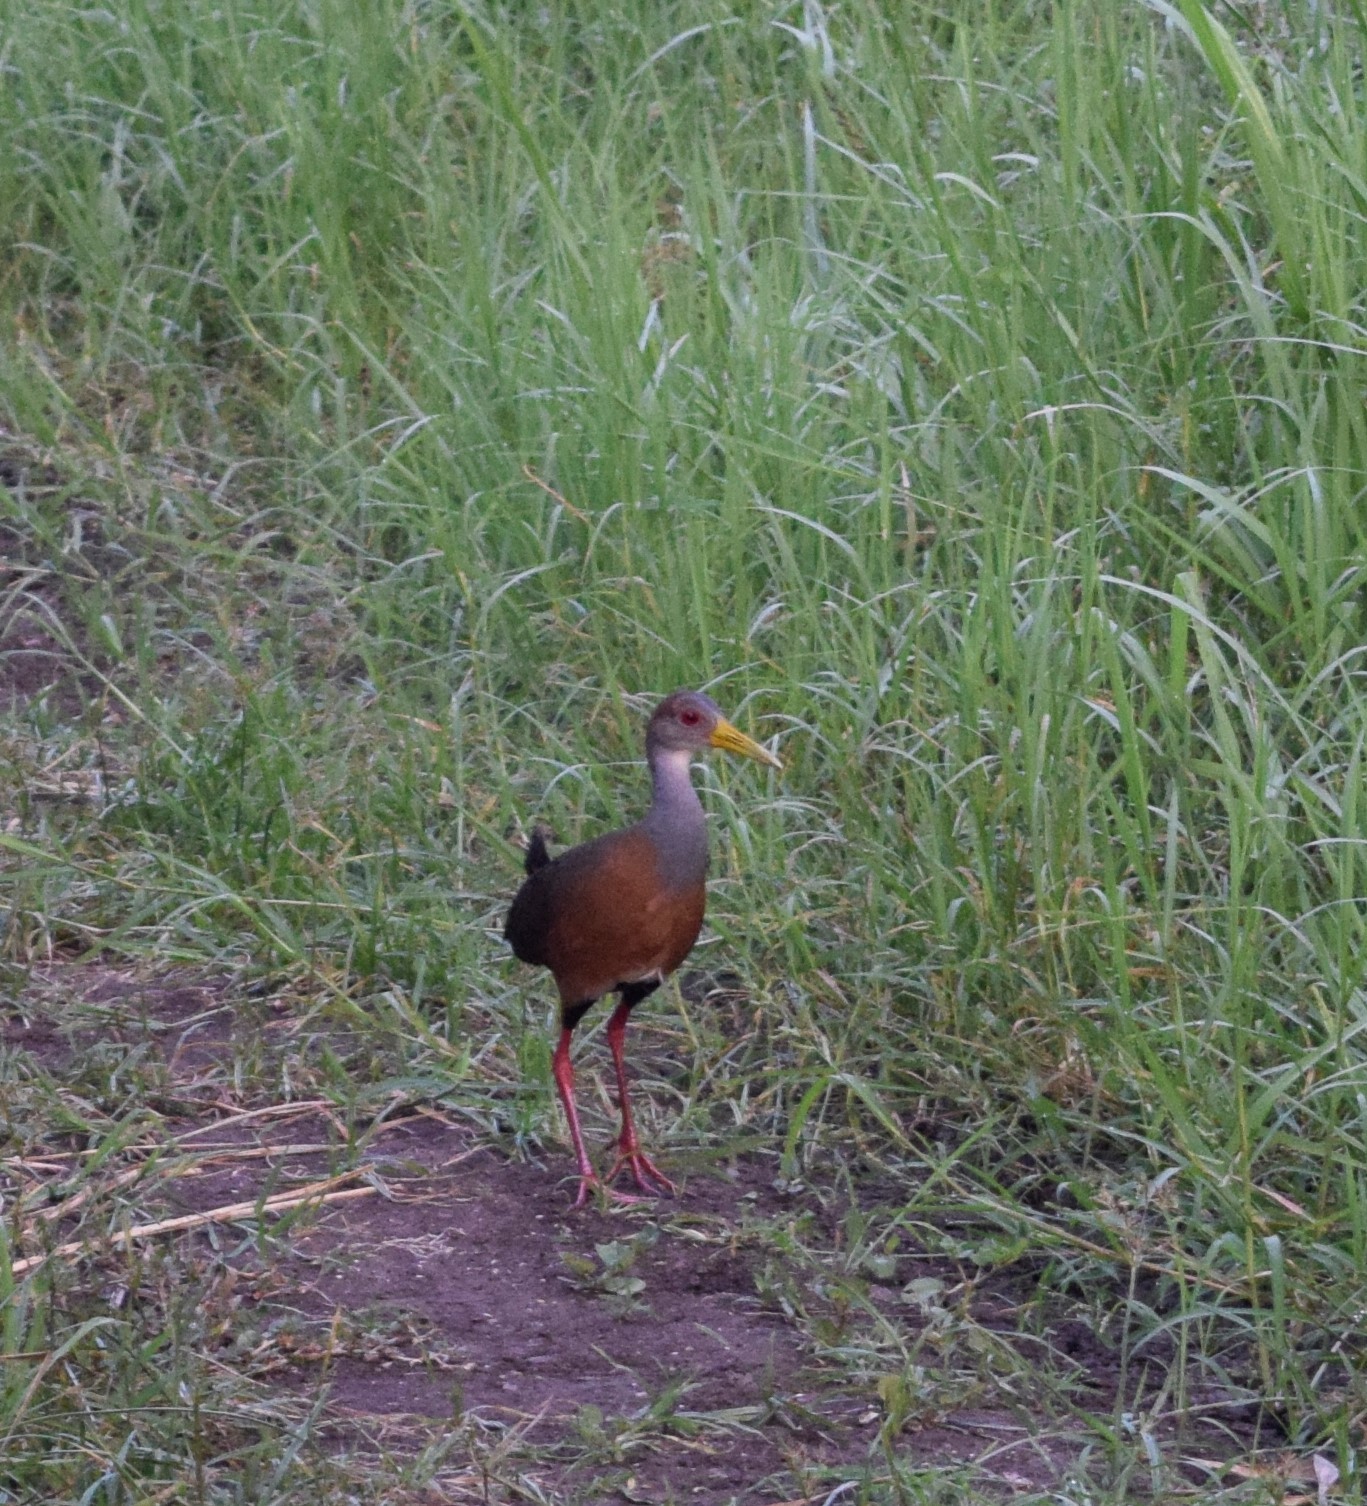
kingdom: Animalia
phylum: Chordata
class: Aves
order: Gruiformes
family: Rallidae
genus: Aramides
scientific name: Aramides albiventris
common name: Russet-naped wood-rail
